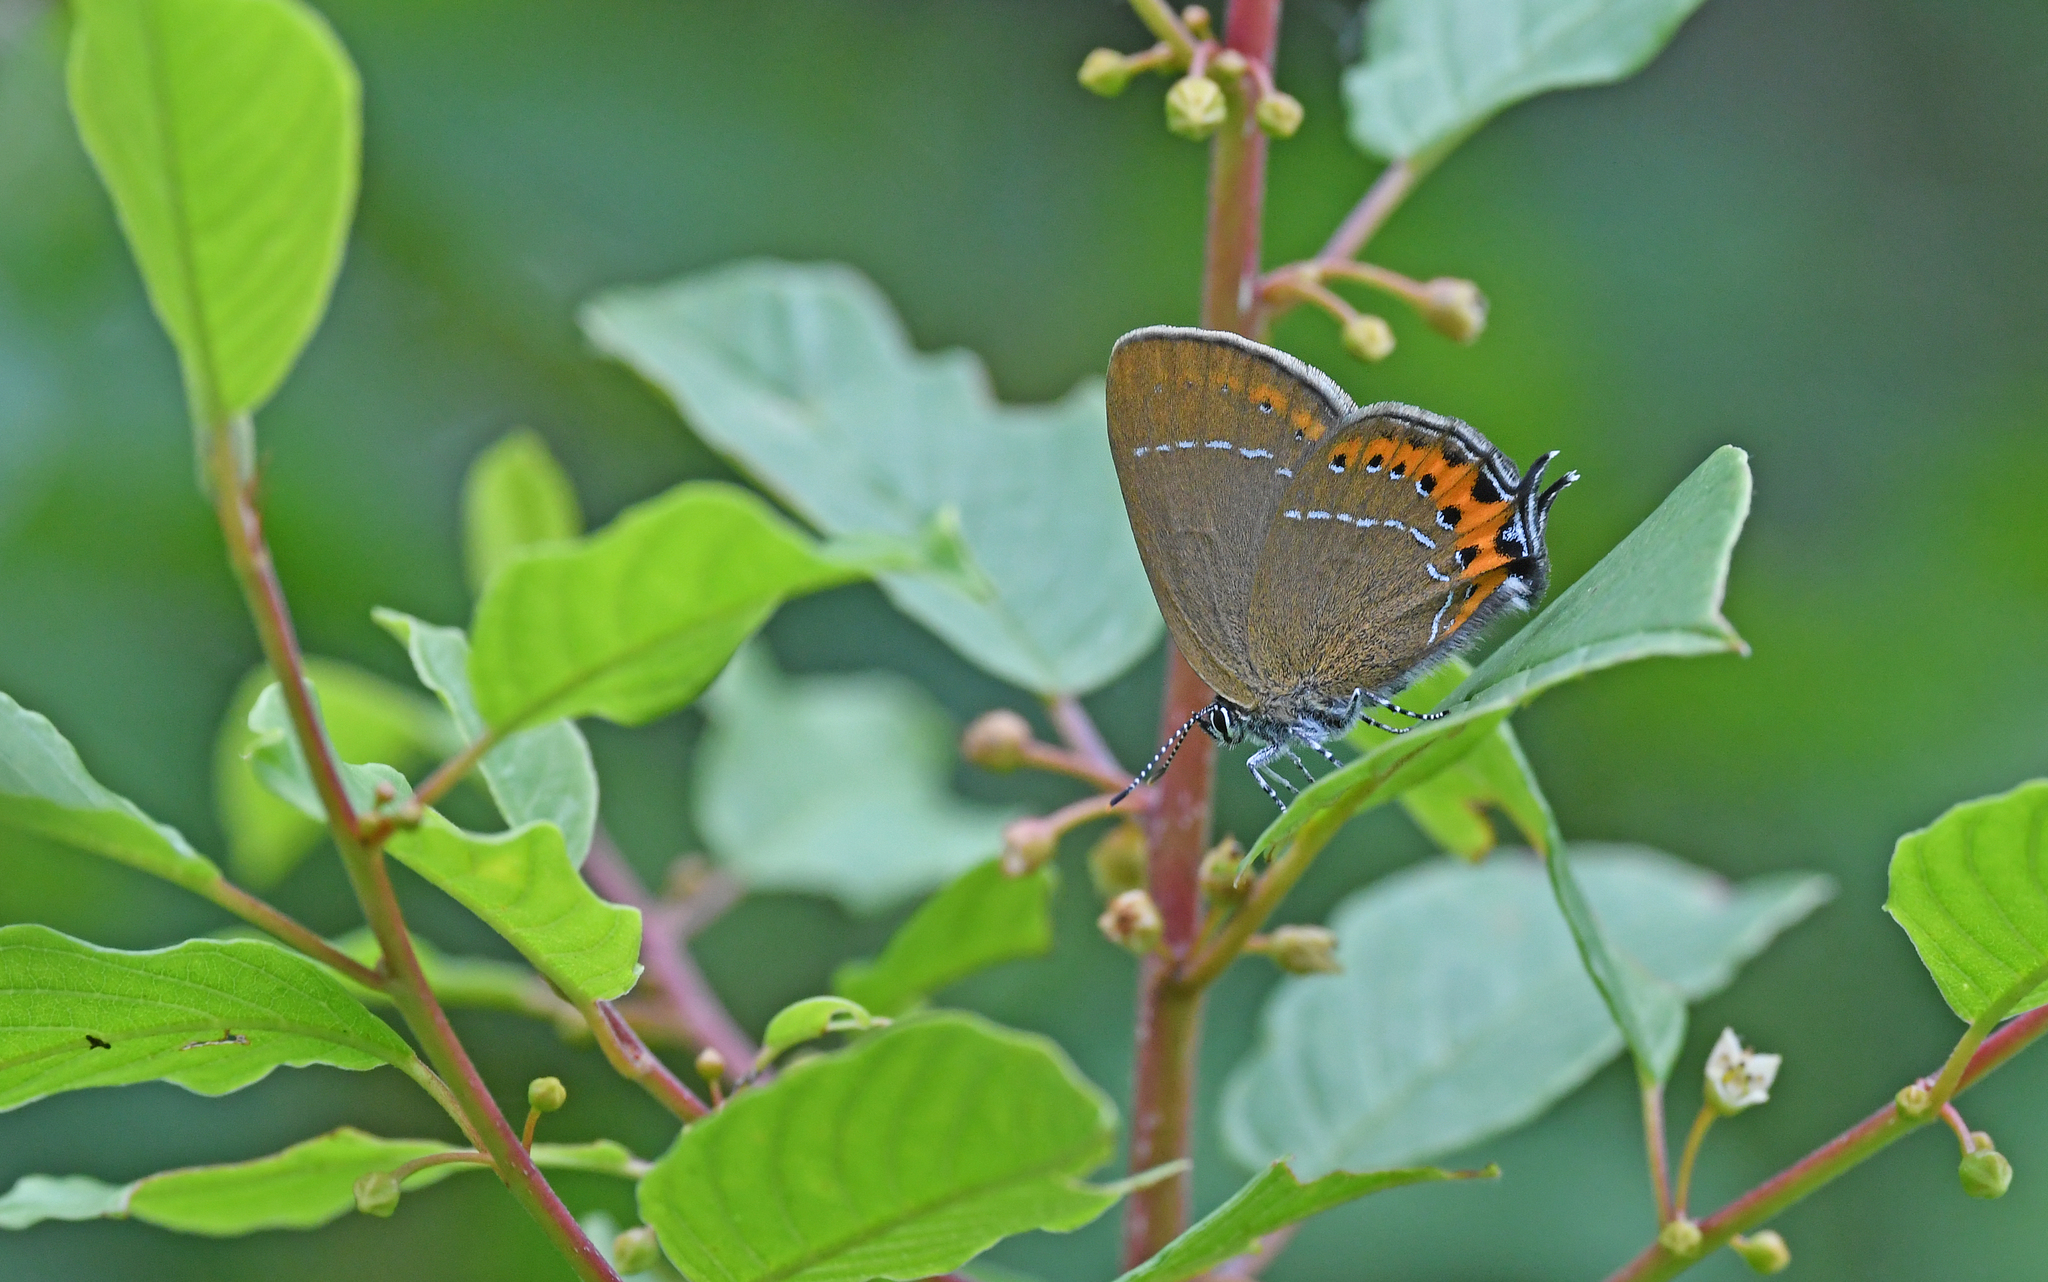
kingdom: Animalia
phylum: Arthropoda
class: Insecta
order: Lepidoptera
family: Lycaenidae
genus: Fixsenia
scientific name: Fixsenia pruni
